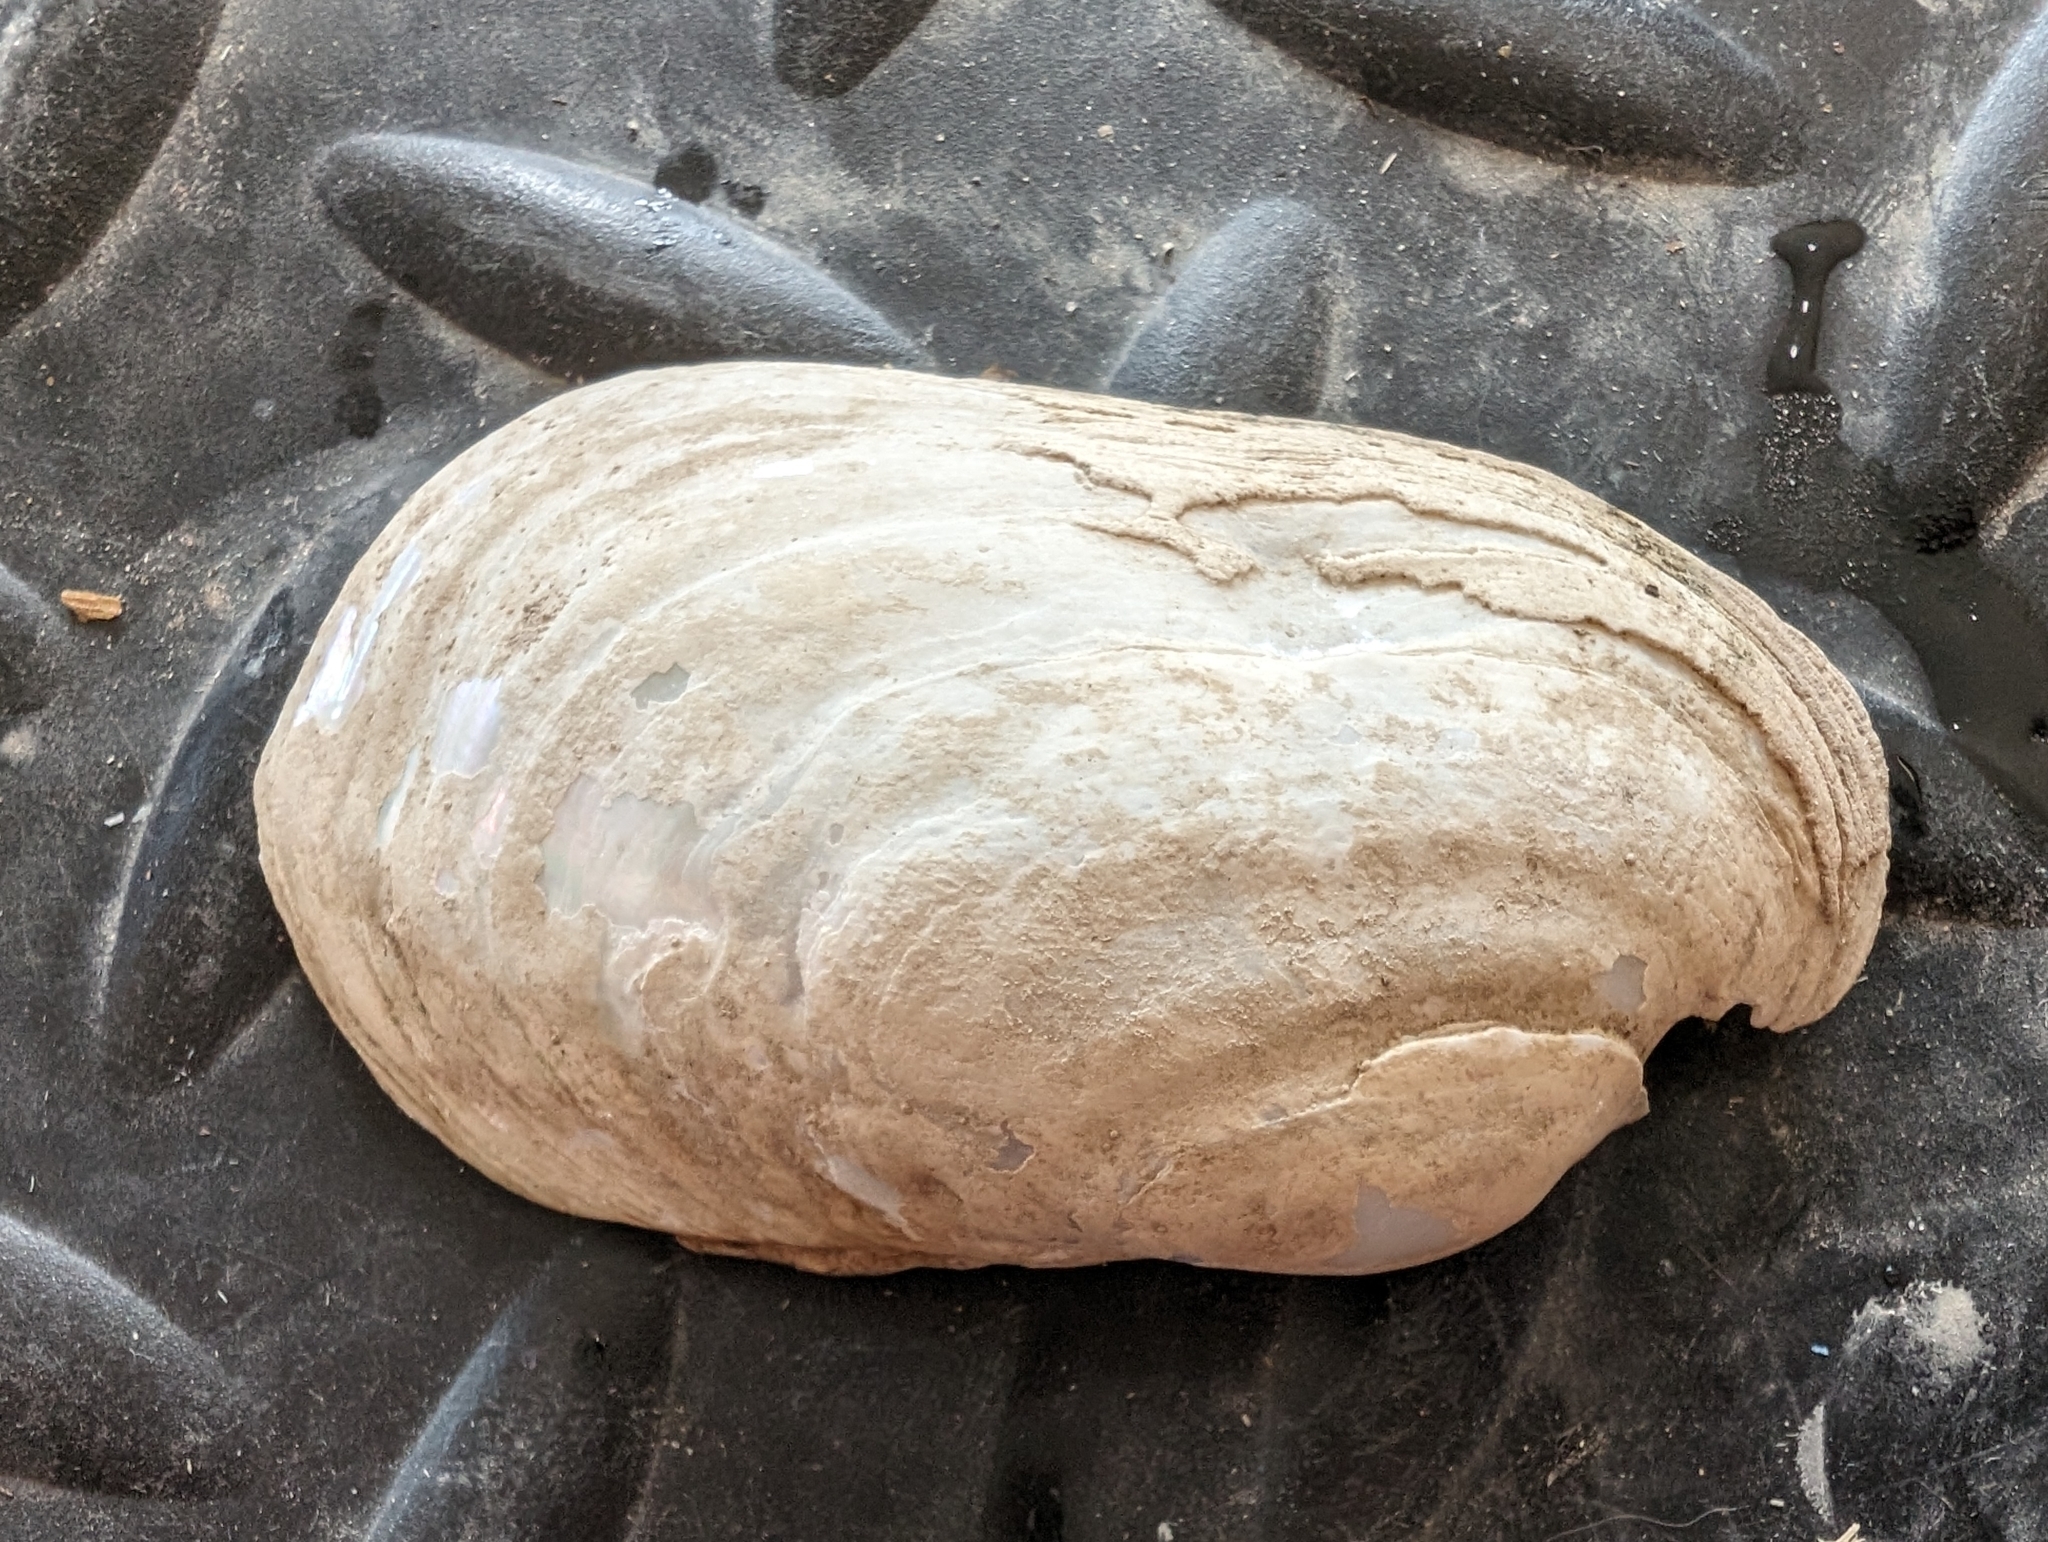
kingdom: Animalia
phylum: Mollusca
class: Bivalvia
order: Unionida
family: Unionidae
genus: Lampsilis
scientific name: Lampsilis siliquoidea
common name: Fatmucket
